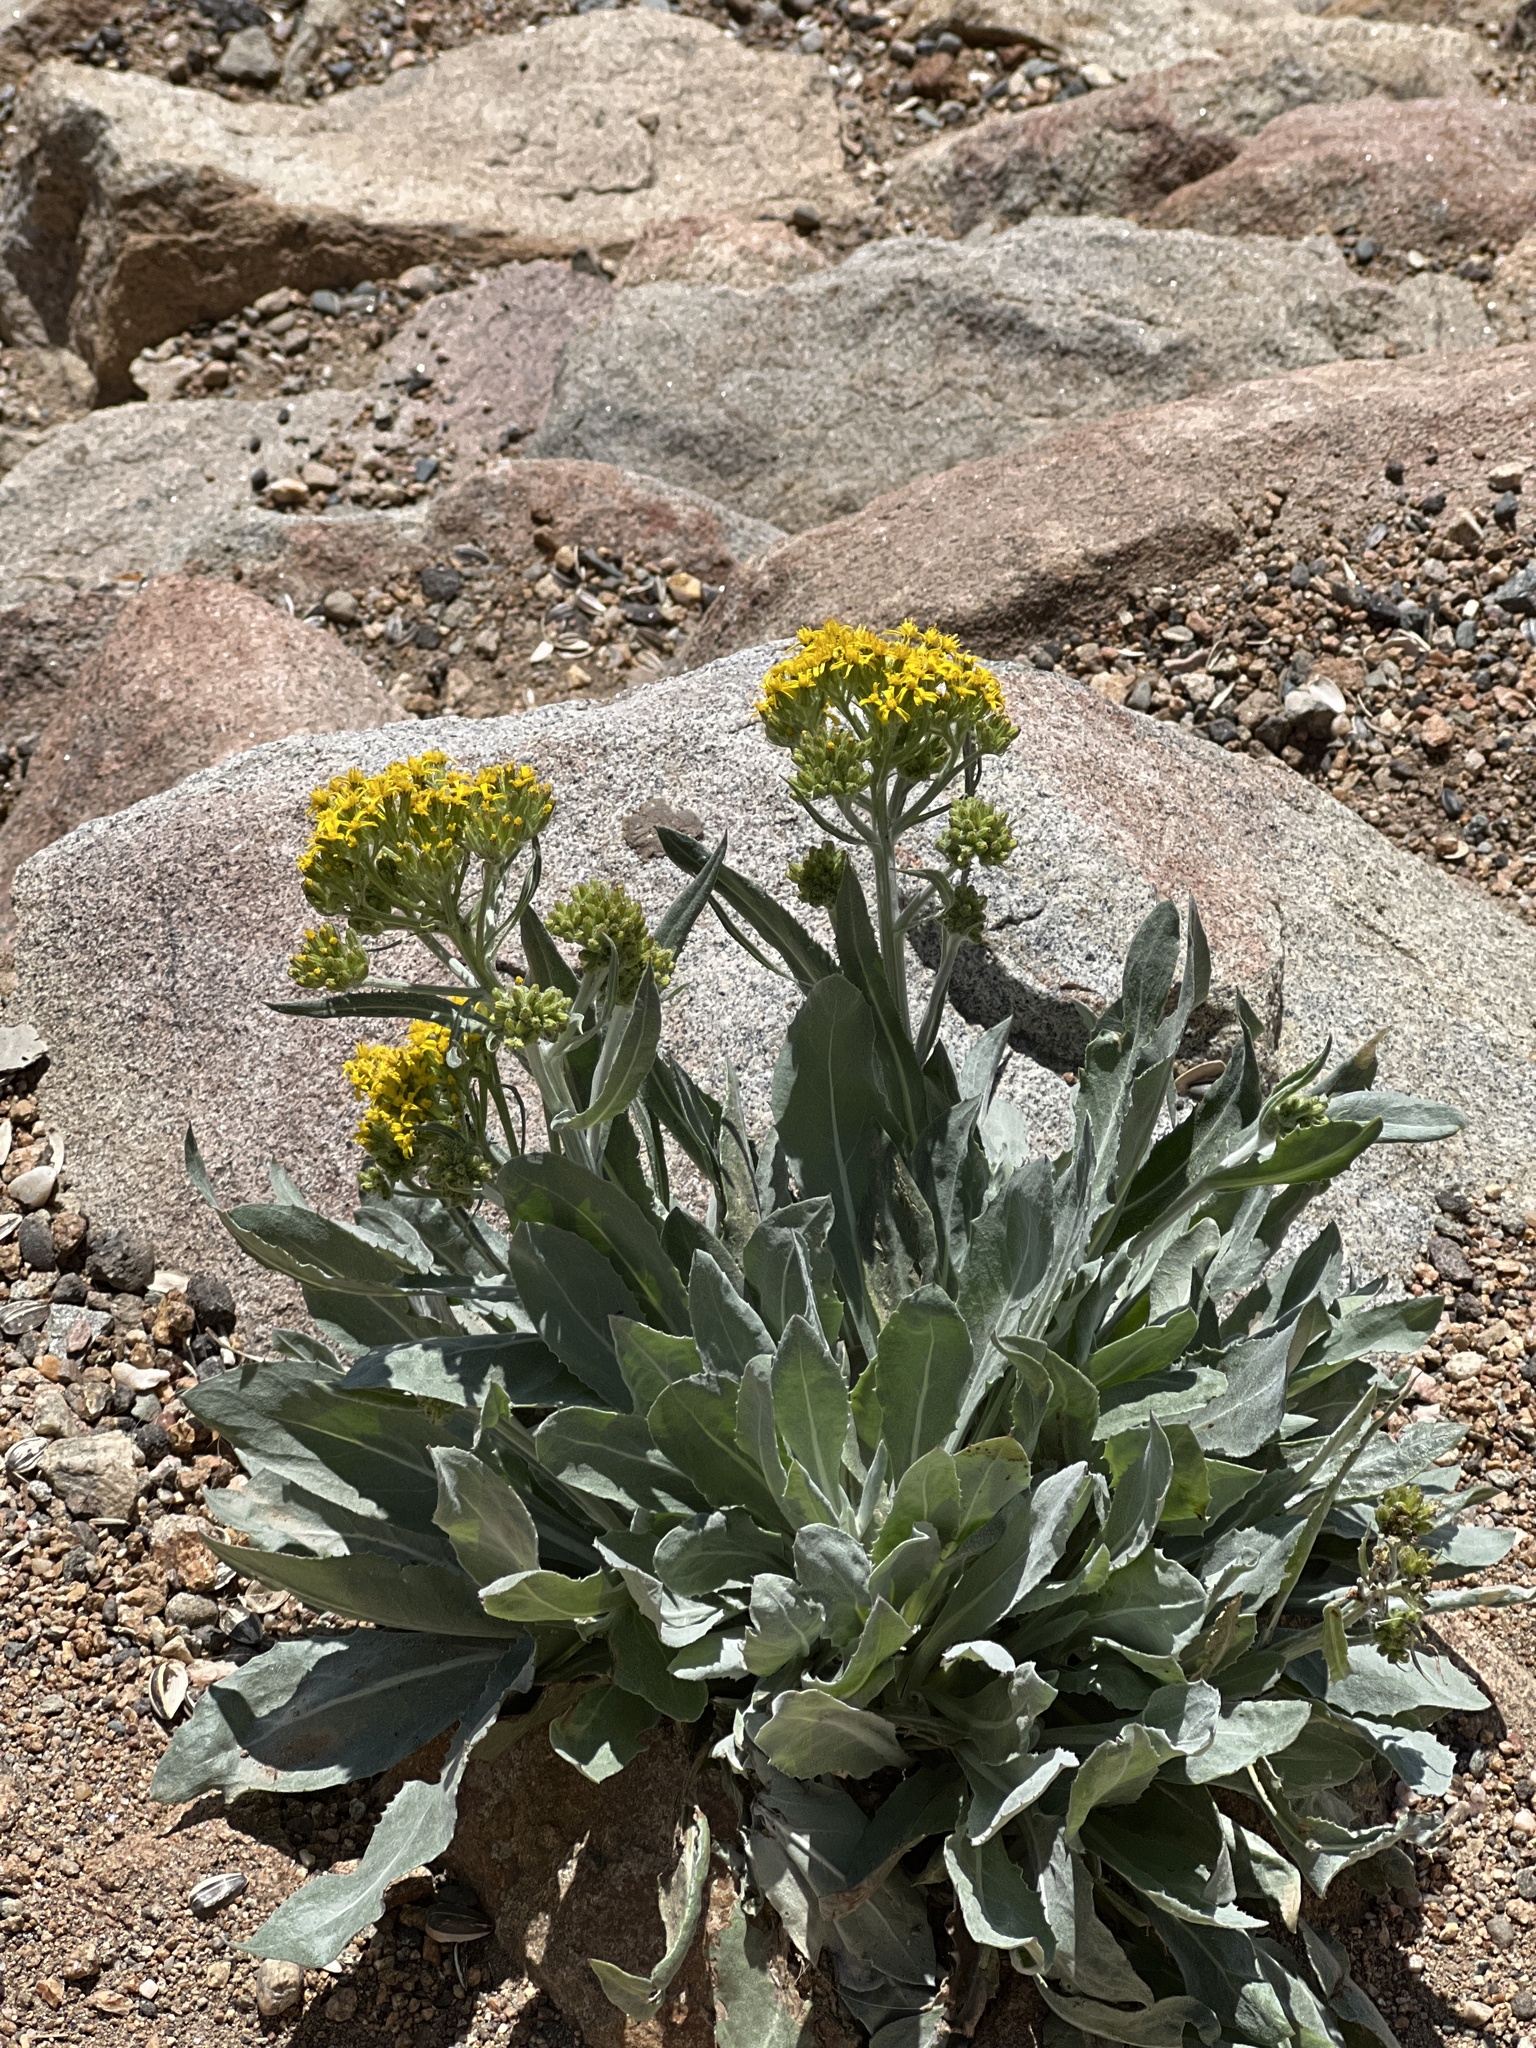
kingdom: Plantae
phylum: Tracheophyta
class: Magnoliopsida
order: Asterales
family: Asteraceae
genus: Senecio
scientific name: Senecio atratus
